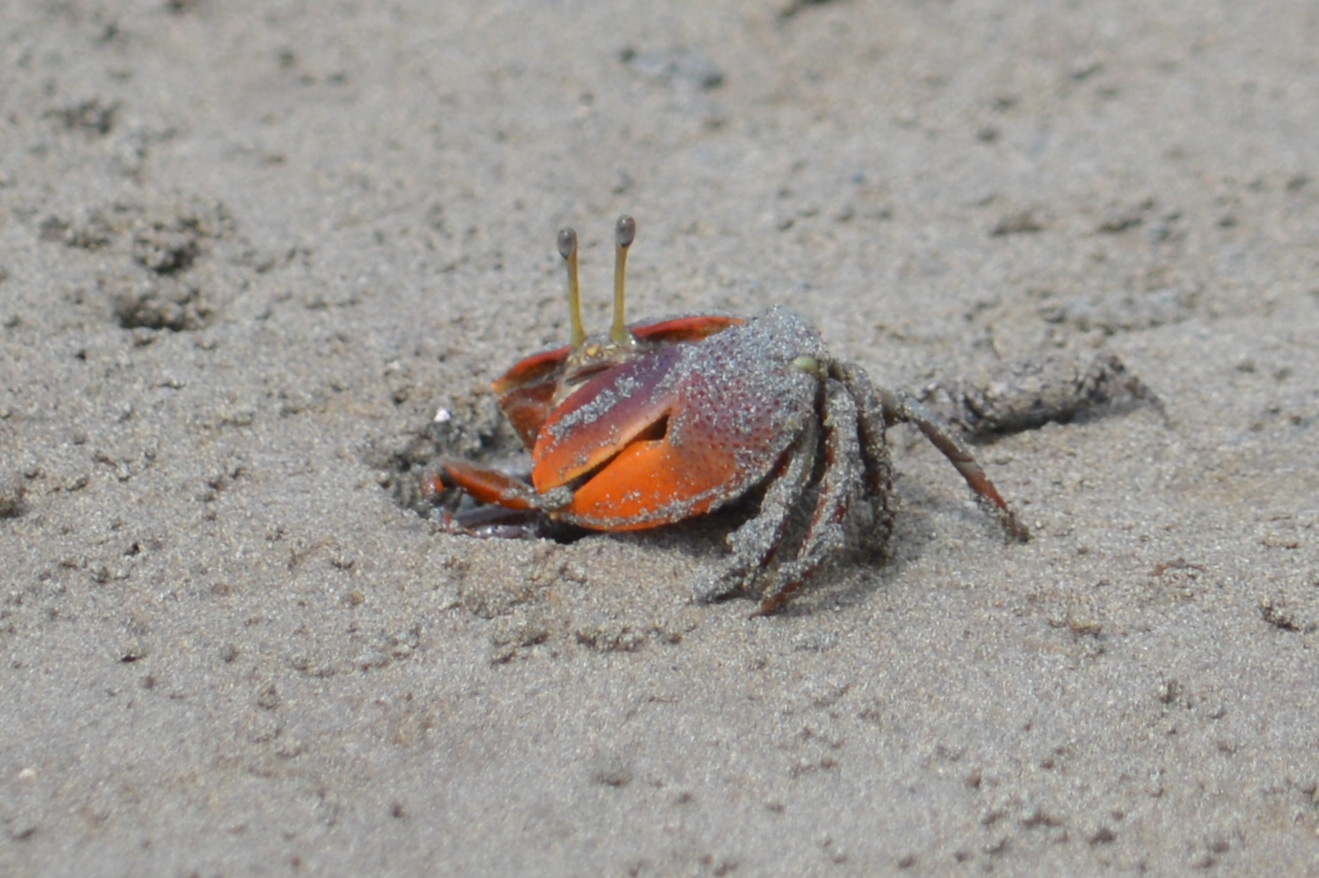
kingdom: Animalia
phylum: Arthropoda
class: Malacostraca
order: Decapoda
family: Ocypodidae
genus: Uca
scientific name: Uca maracoani
